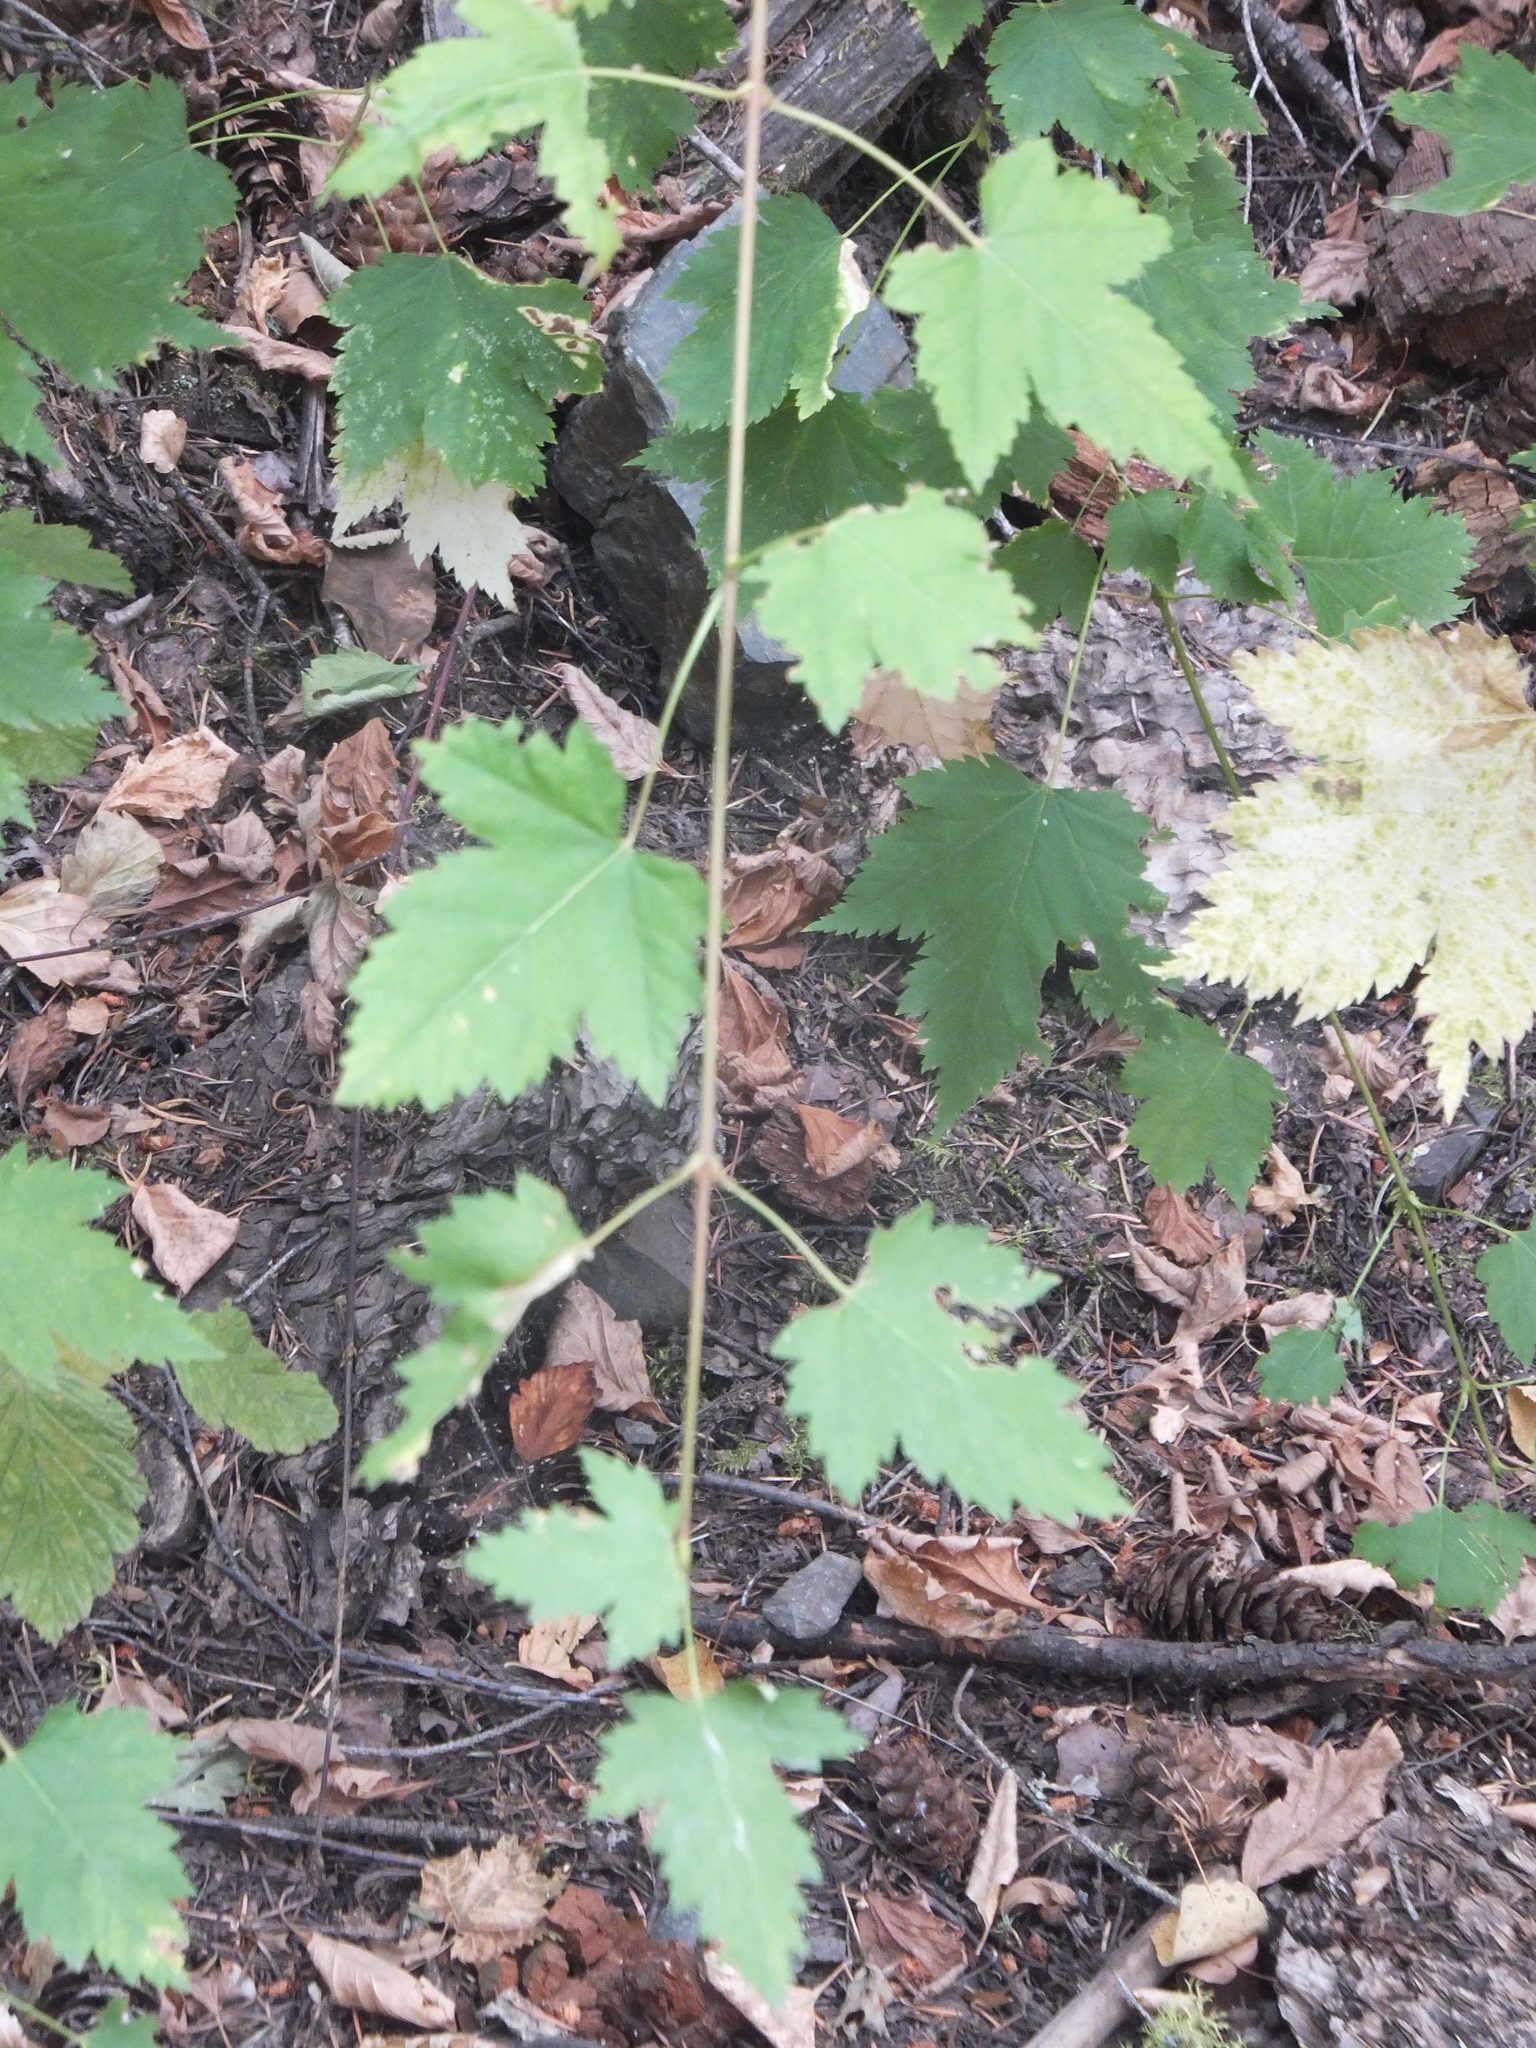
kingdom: Plantae
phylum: Tracheophyta
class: Magnoliopsida
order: Sapindales
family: Sapindaceae
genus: Acer
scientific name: Acer glabrum
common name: Rocky mountain maple
